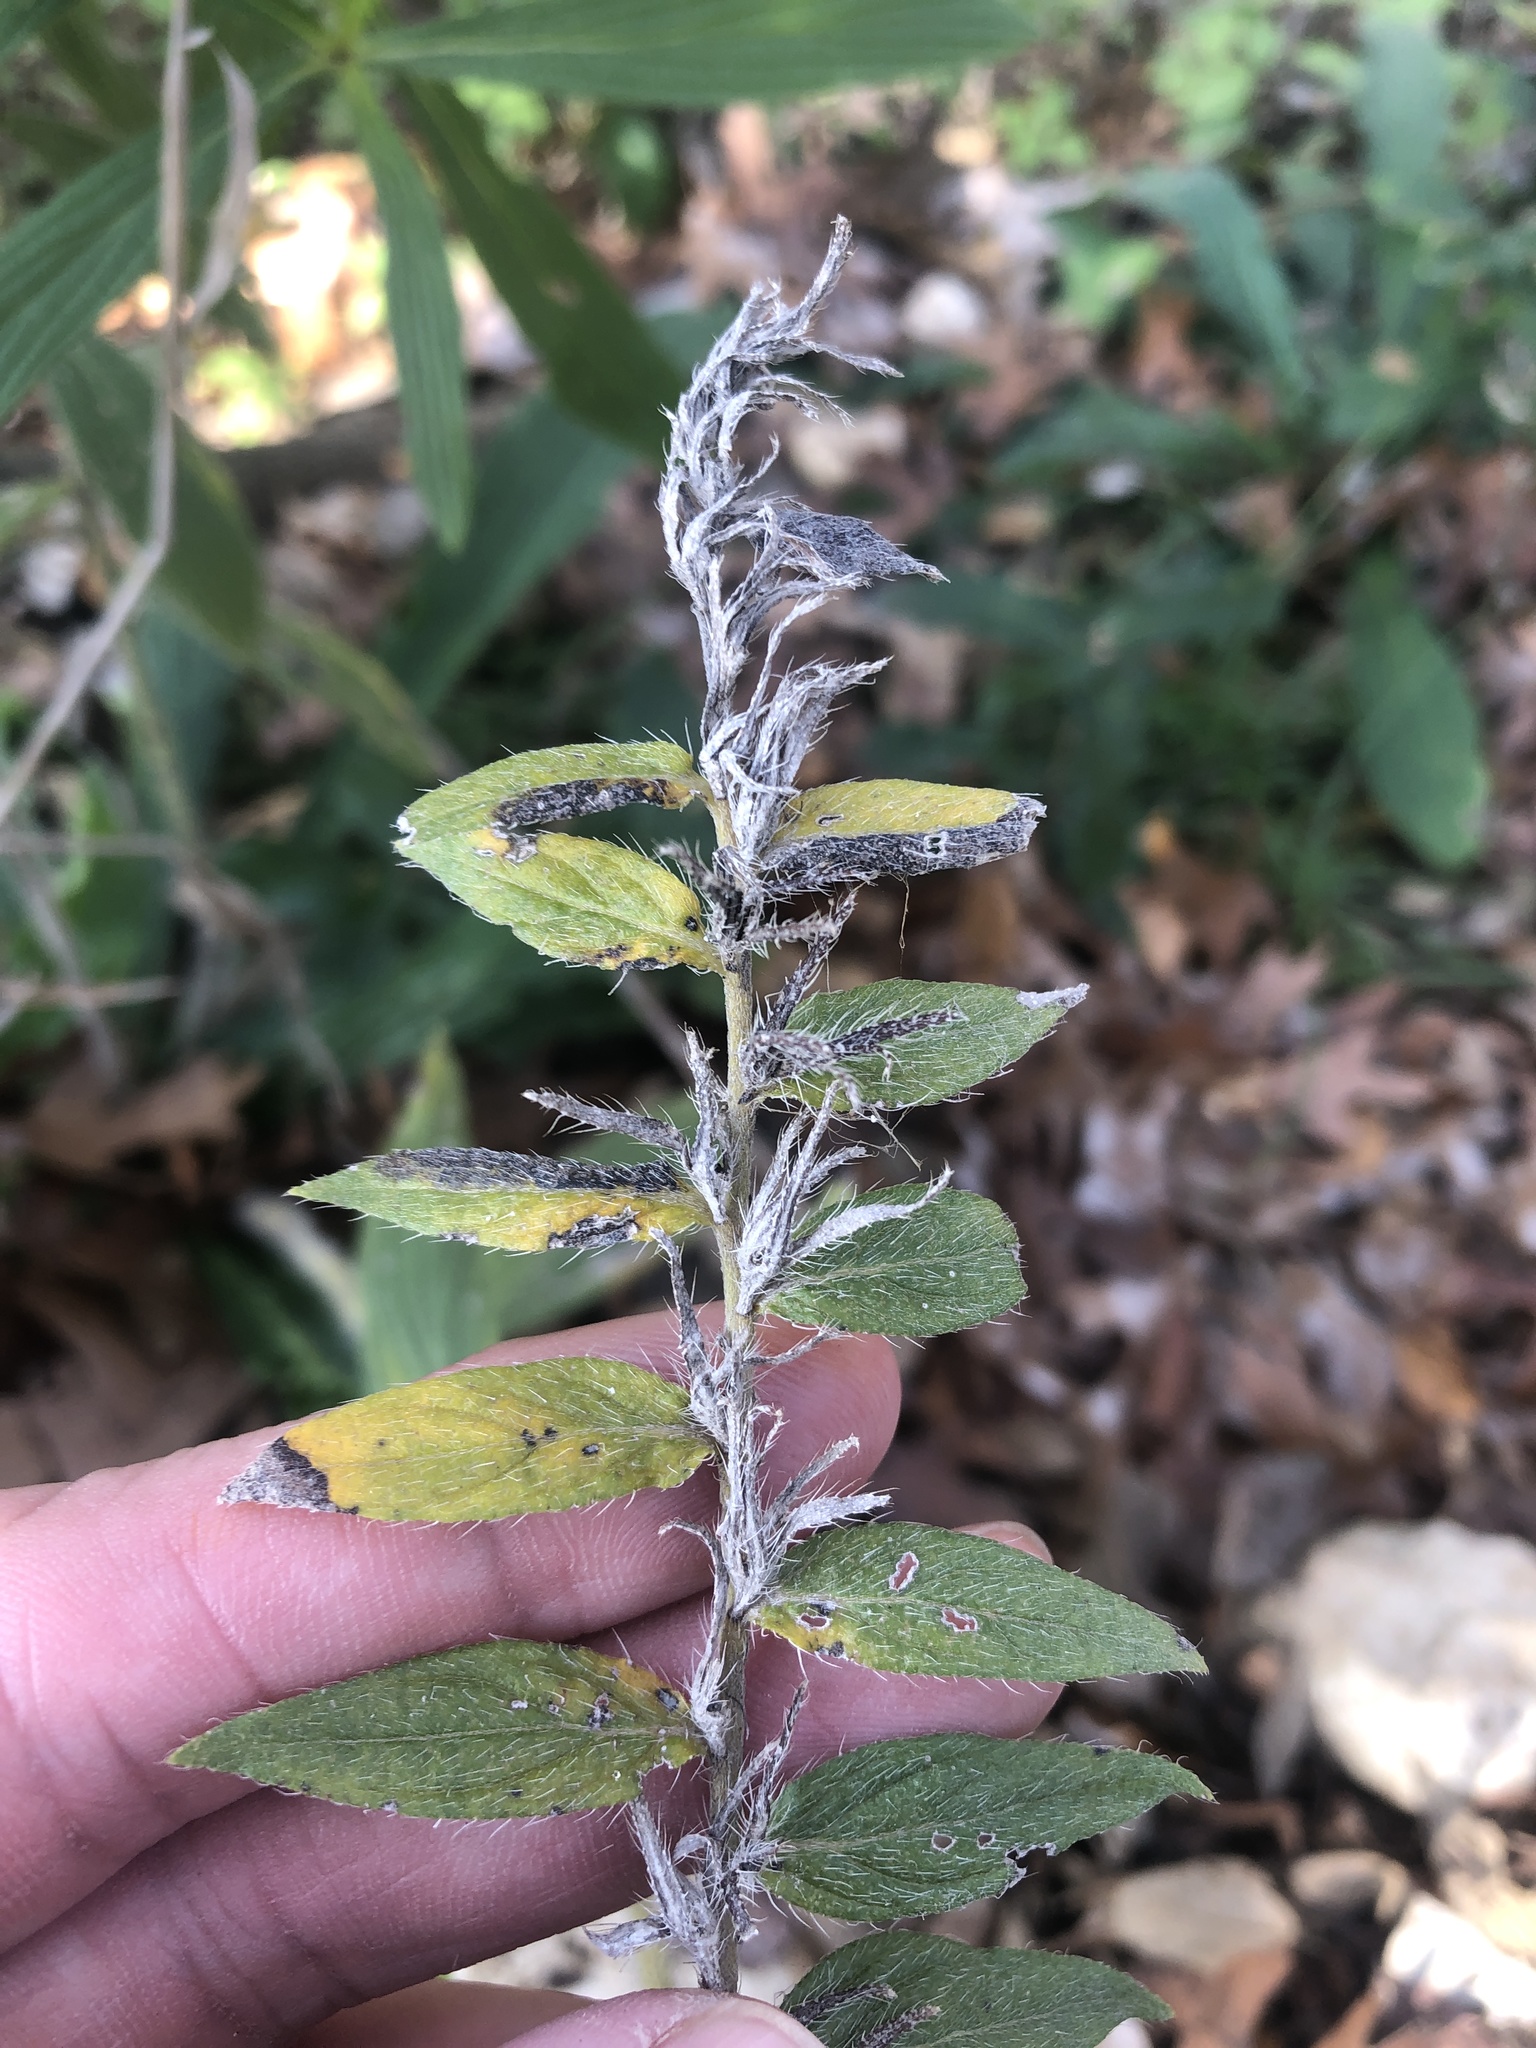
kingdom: Plantae
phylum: Tracheophyta
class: Magnoliopsida
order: Boraginales
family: Boraginaceae
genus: Lithospermum
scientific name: Lithospermum caroliniense
